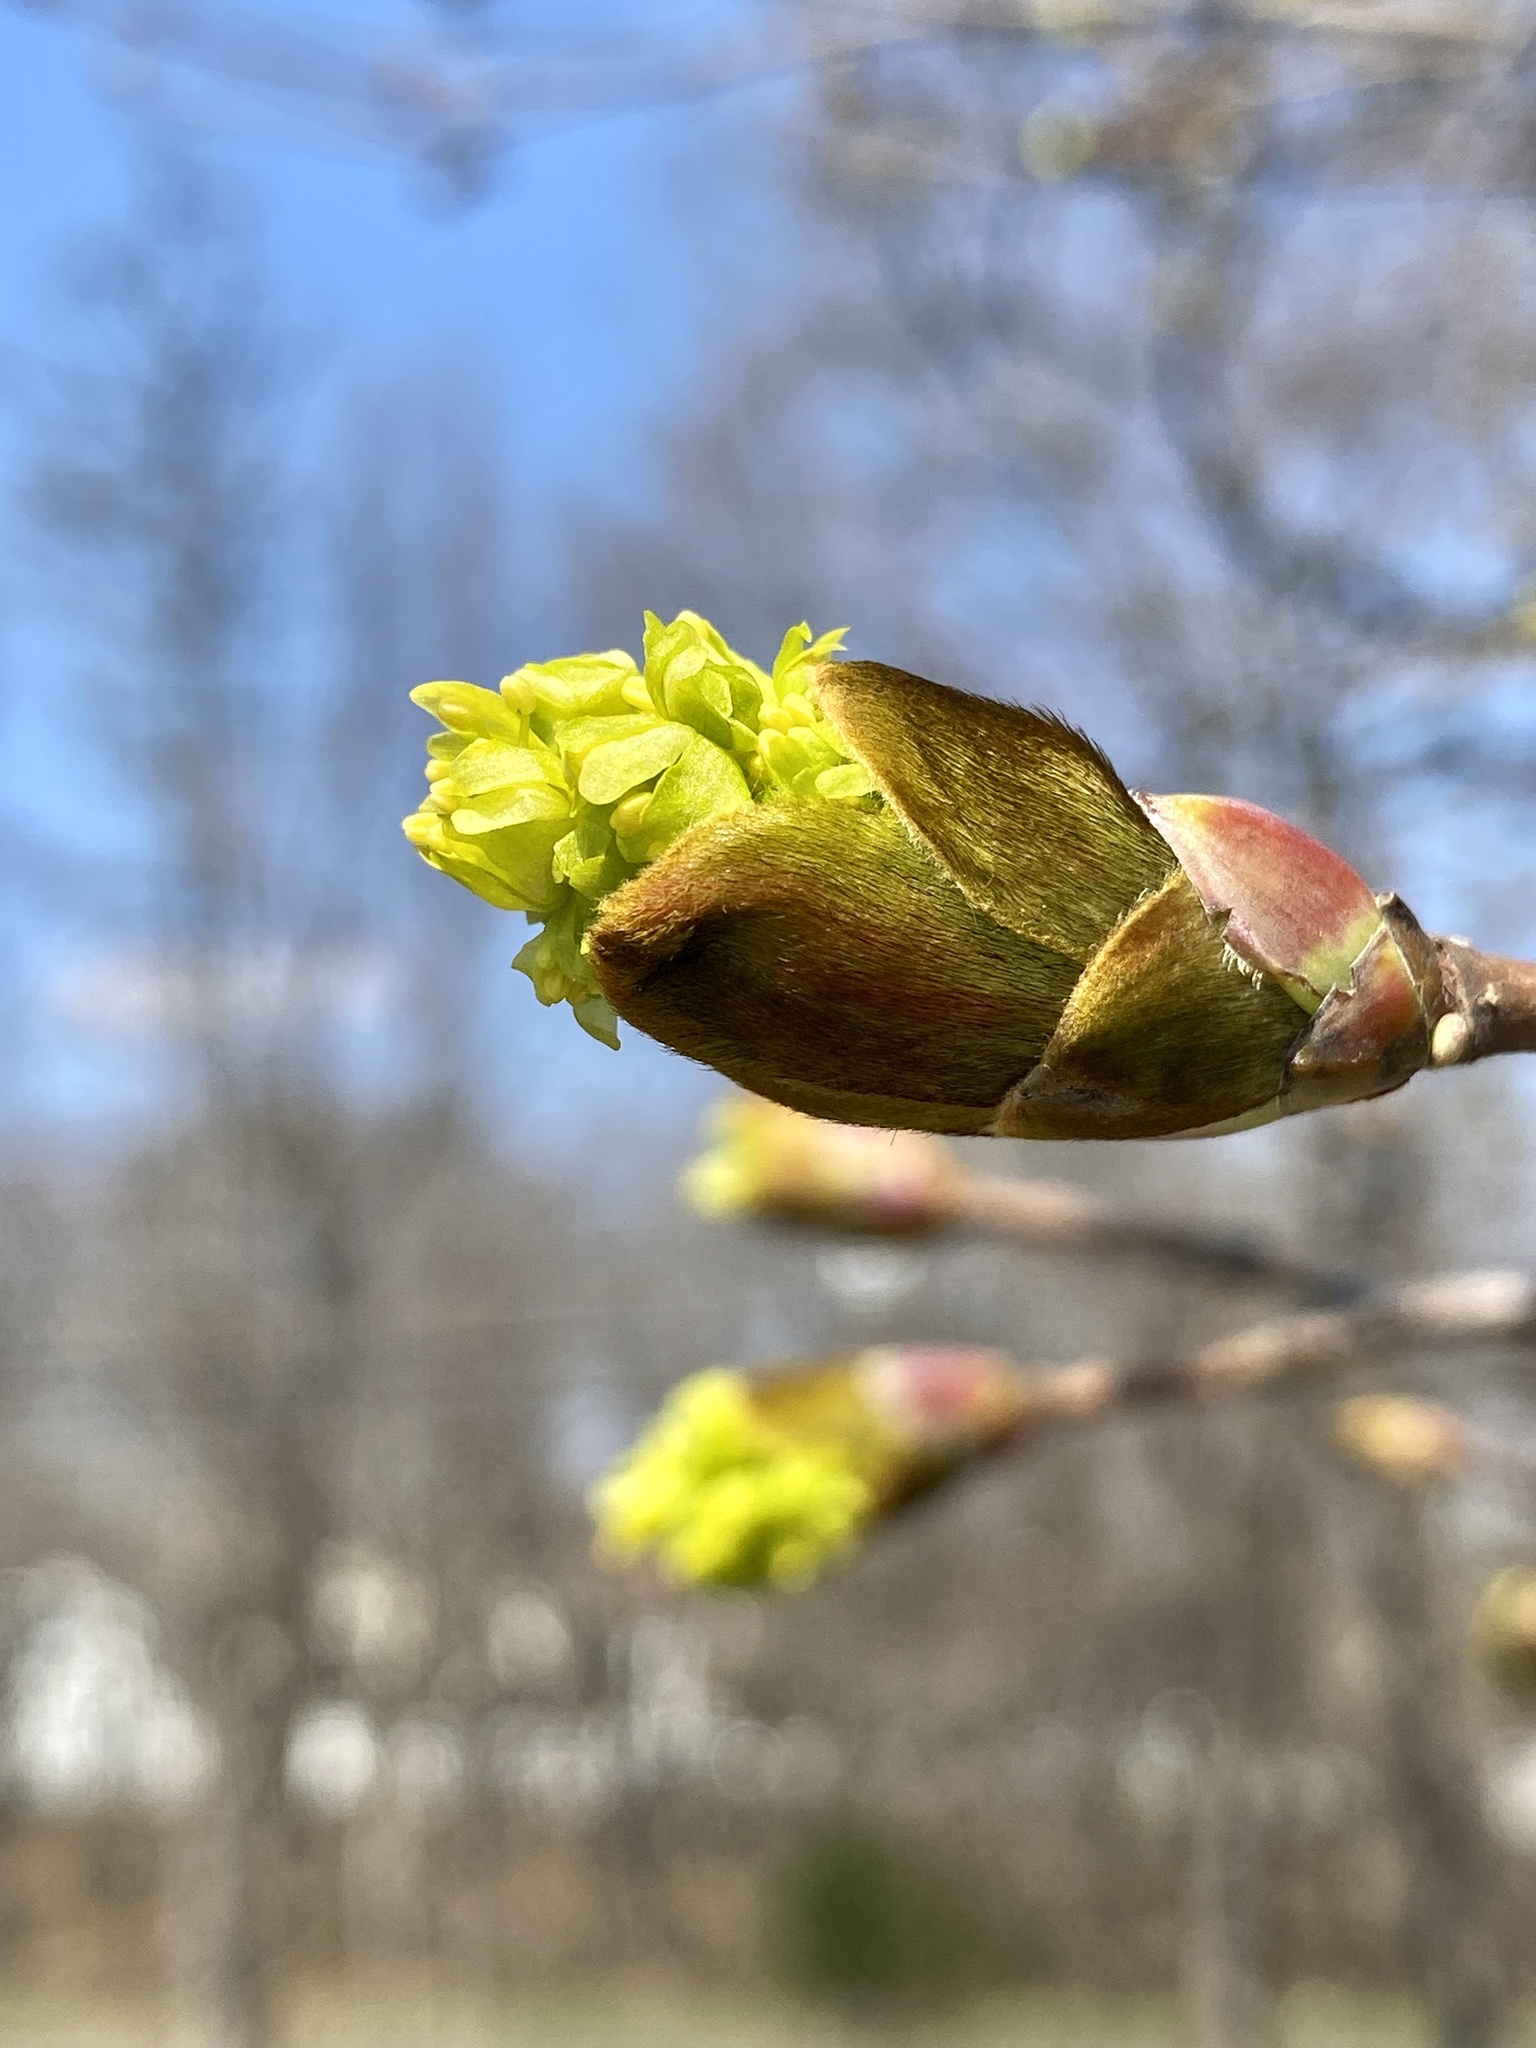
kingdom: Plantae
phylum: Tracheophyta
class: Magnoliopsida
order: Sapindales
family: Sapindaceae
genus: Acer
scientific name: Acer platanoides
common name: Norway maple
